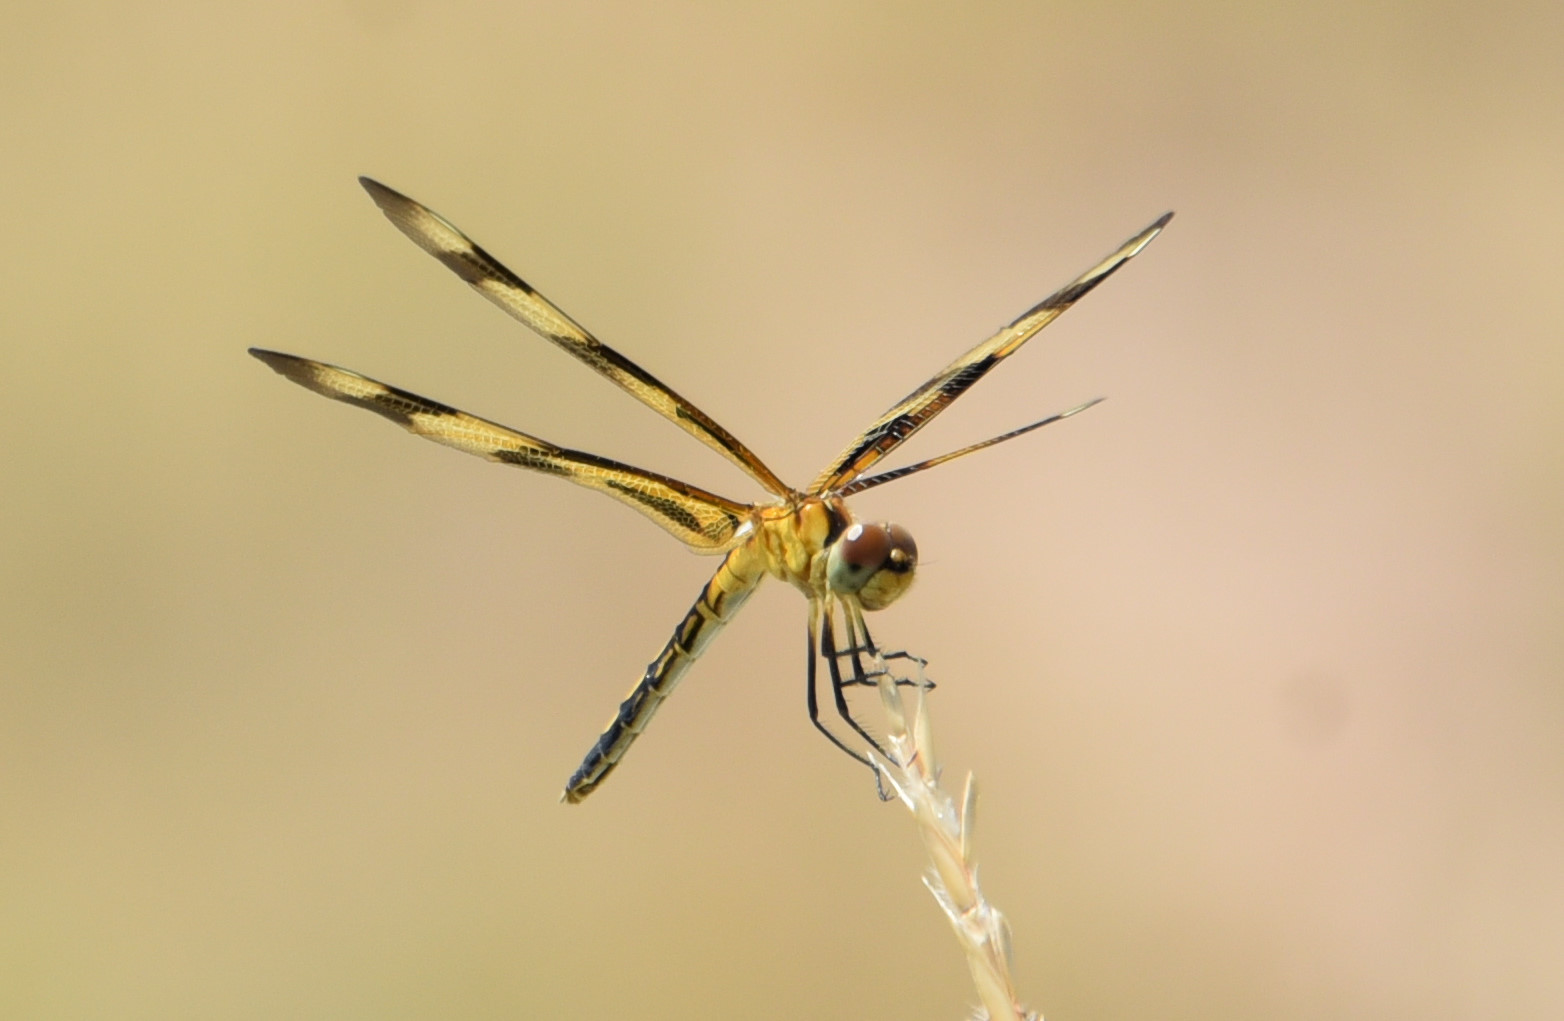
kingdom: Animalia
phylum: Arthropoda
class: Insecta
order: Odonata
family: Libellulidae
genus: Celithemis
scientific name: Celithemis eponina
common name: Halloween pennant
